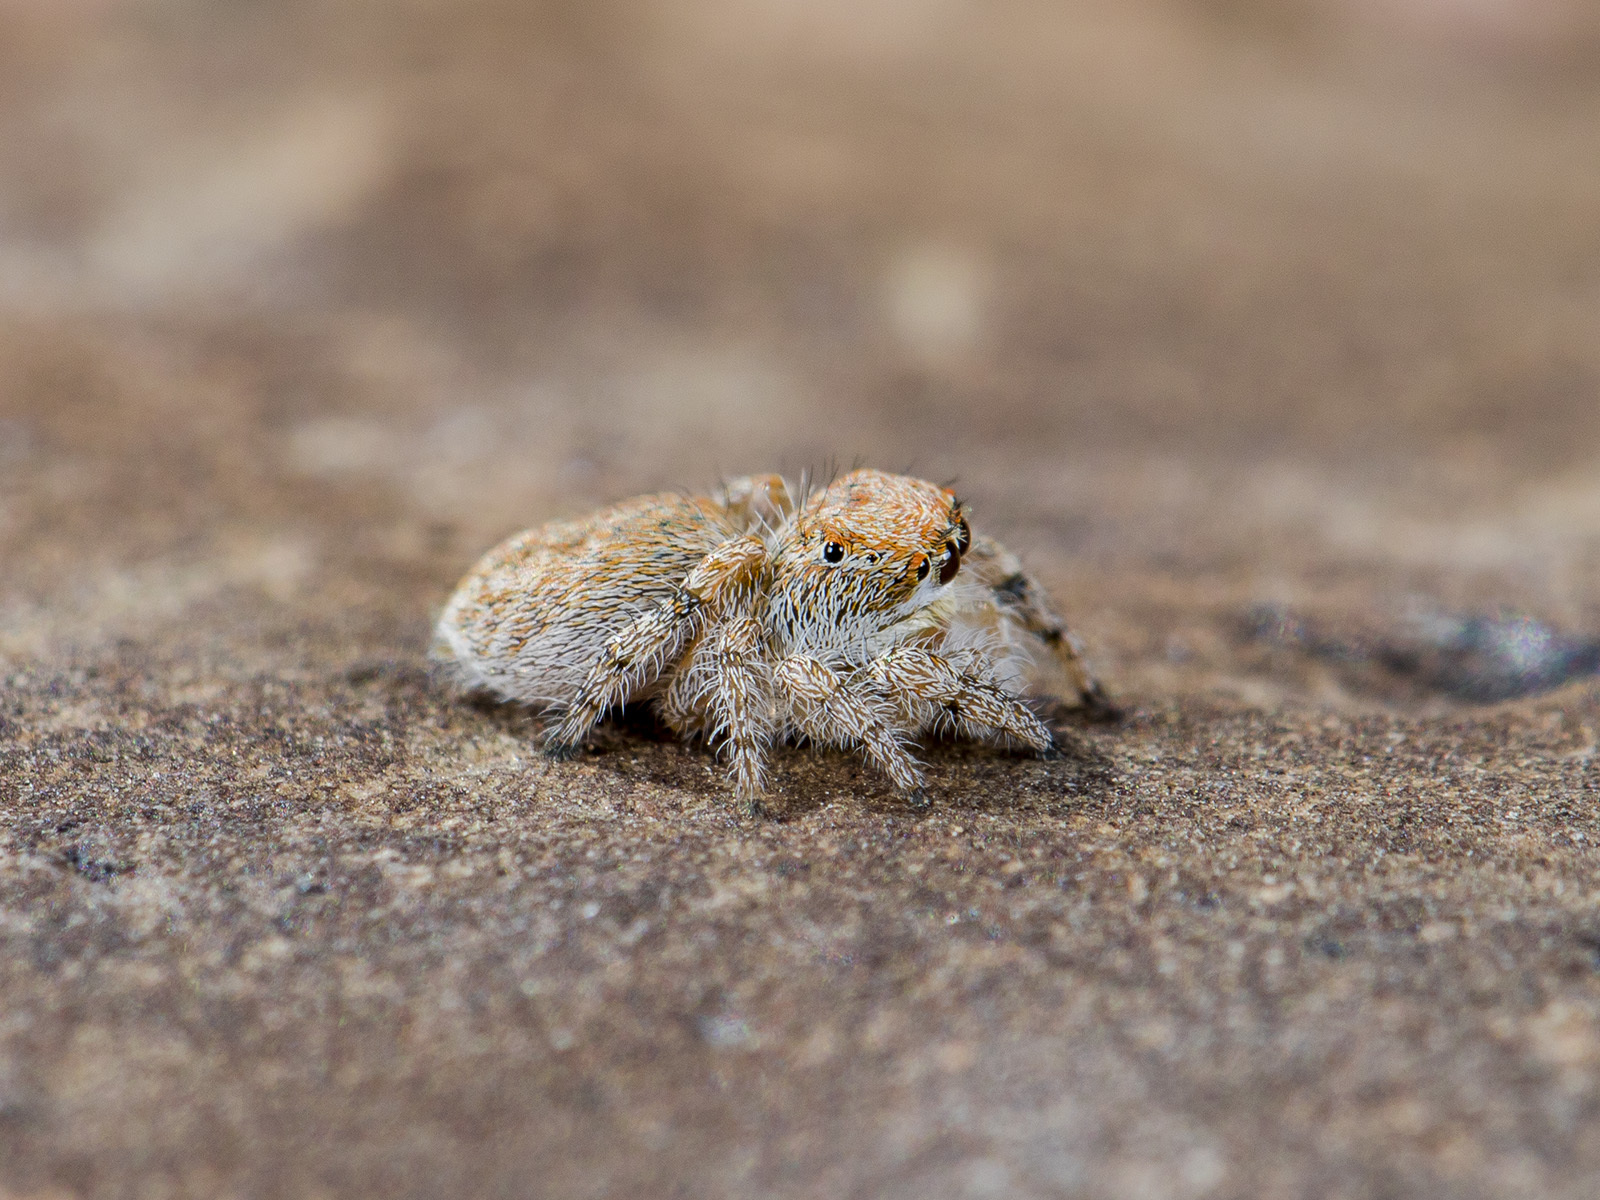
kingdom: Animalia
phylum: Arthropoda
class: Arachnida
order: Araneae
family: Salticidae
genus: Yllenus
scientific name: Yllenus zyuzini
